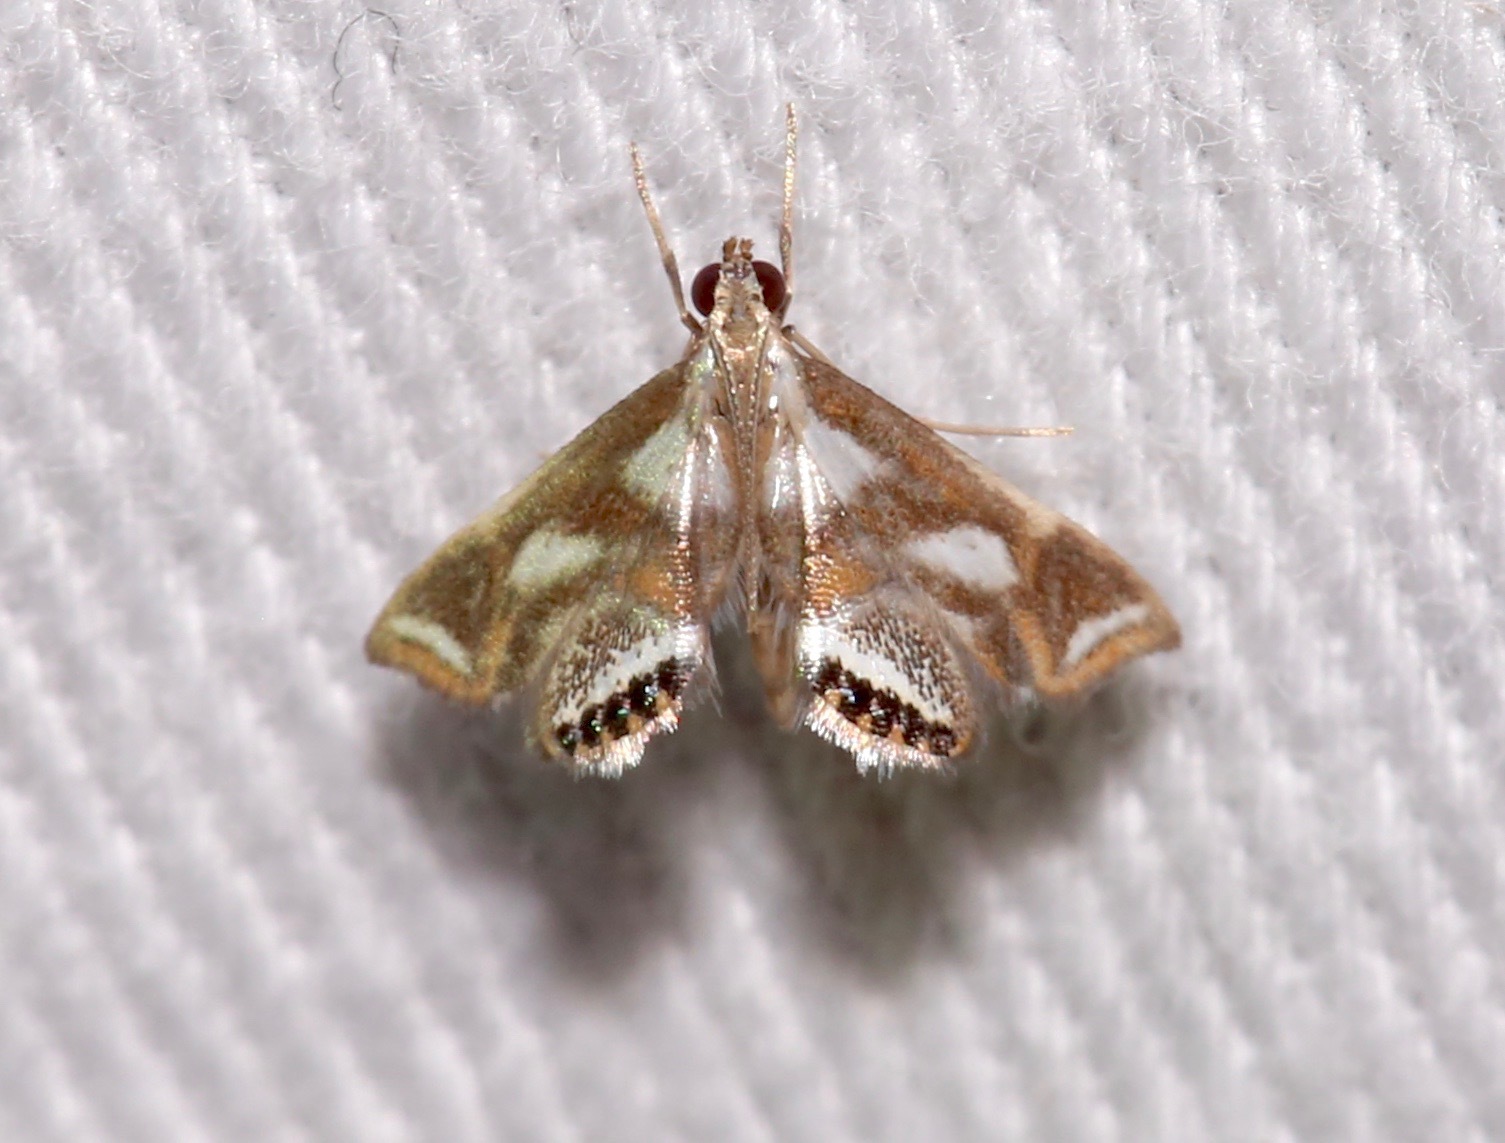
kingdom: Animalia
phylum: Arthropoda
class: Insecta
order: Lepidoptera
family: Crambidae
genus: Chrysendeton
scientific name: Chrysendeton imitabilis
